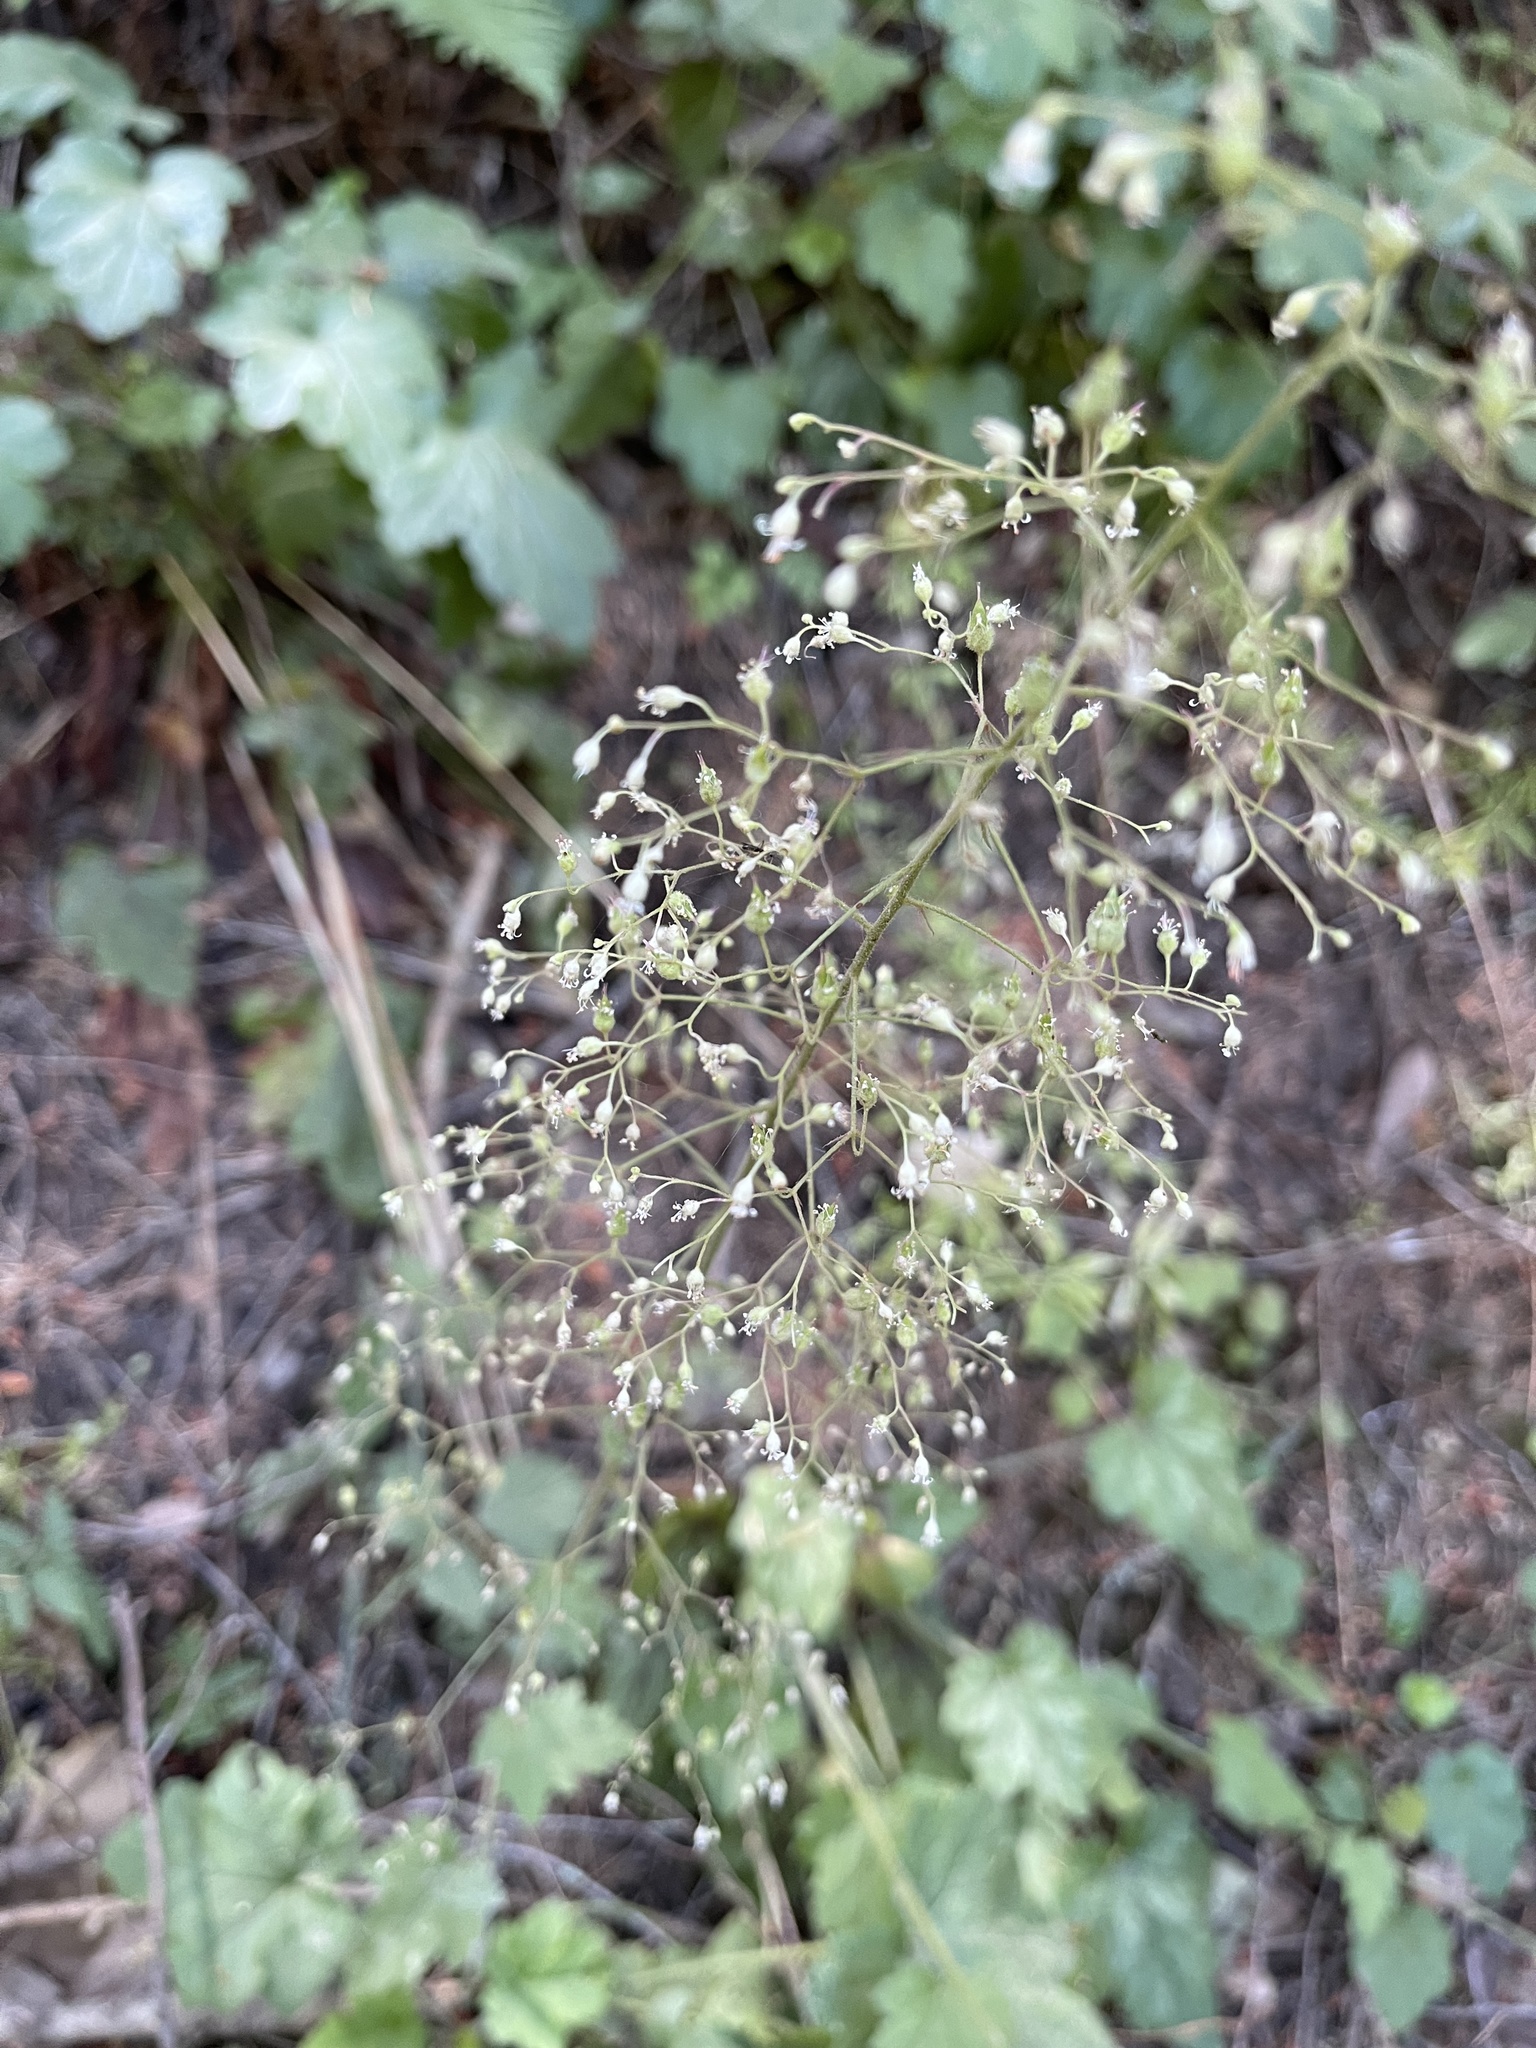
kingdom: Plantae
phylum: Tracheophyta
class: Magnoliopsida
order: Saxifragales
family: Saxifragaceae
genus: Heuchera
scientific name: Heuchera micrantha
